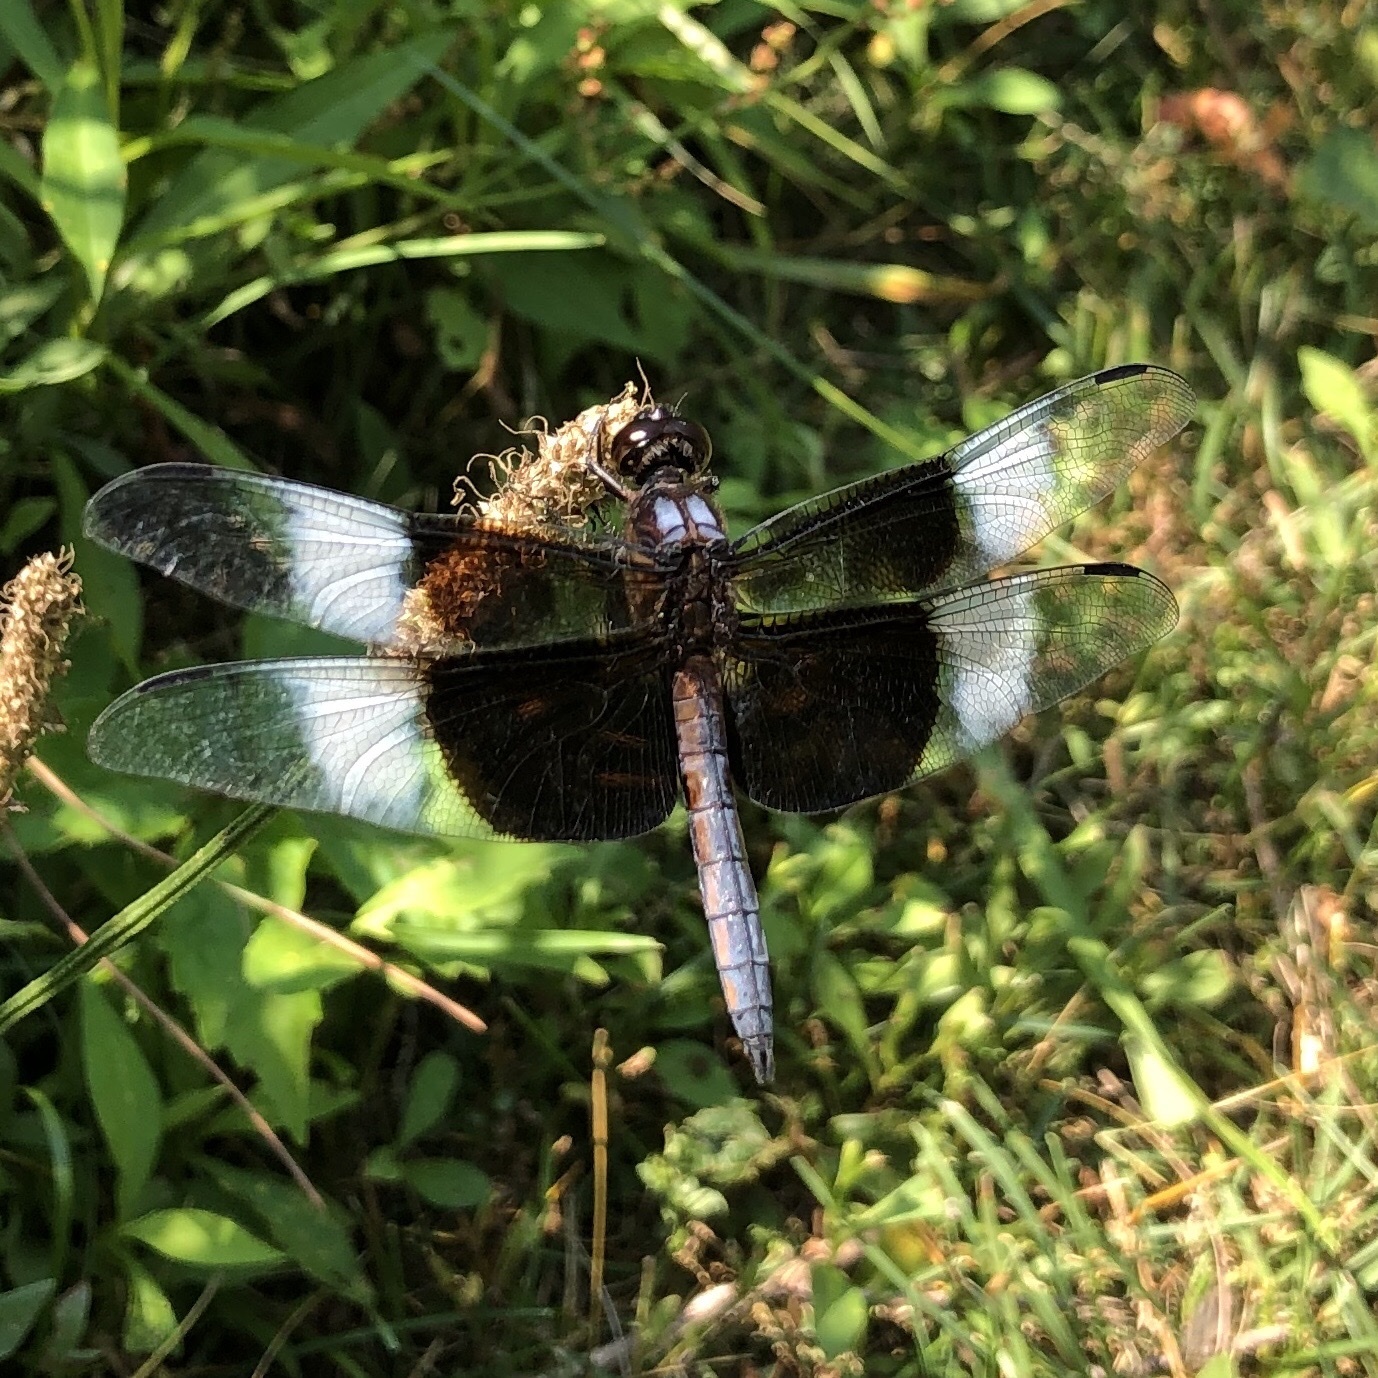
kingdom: Animalia
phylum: Arthropoda
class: Insecta
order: Odonata
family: Libellulidae
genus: Libellula
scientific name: Libellula luctuosa
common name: Widow skimmer
